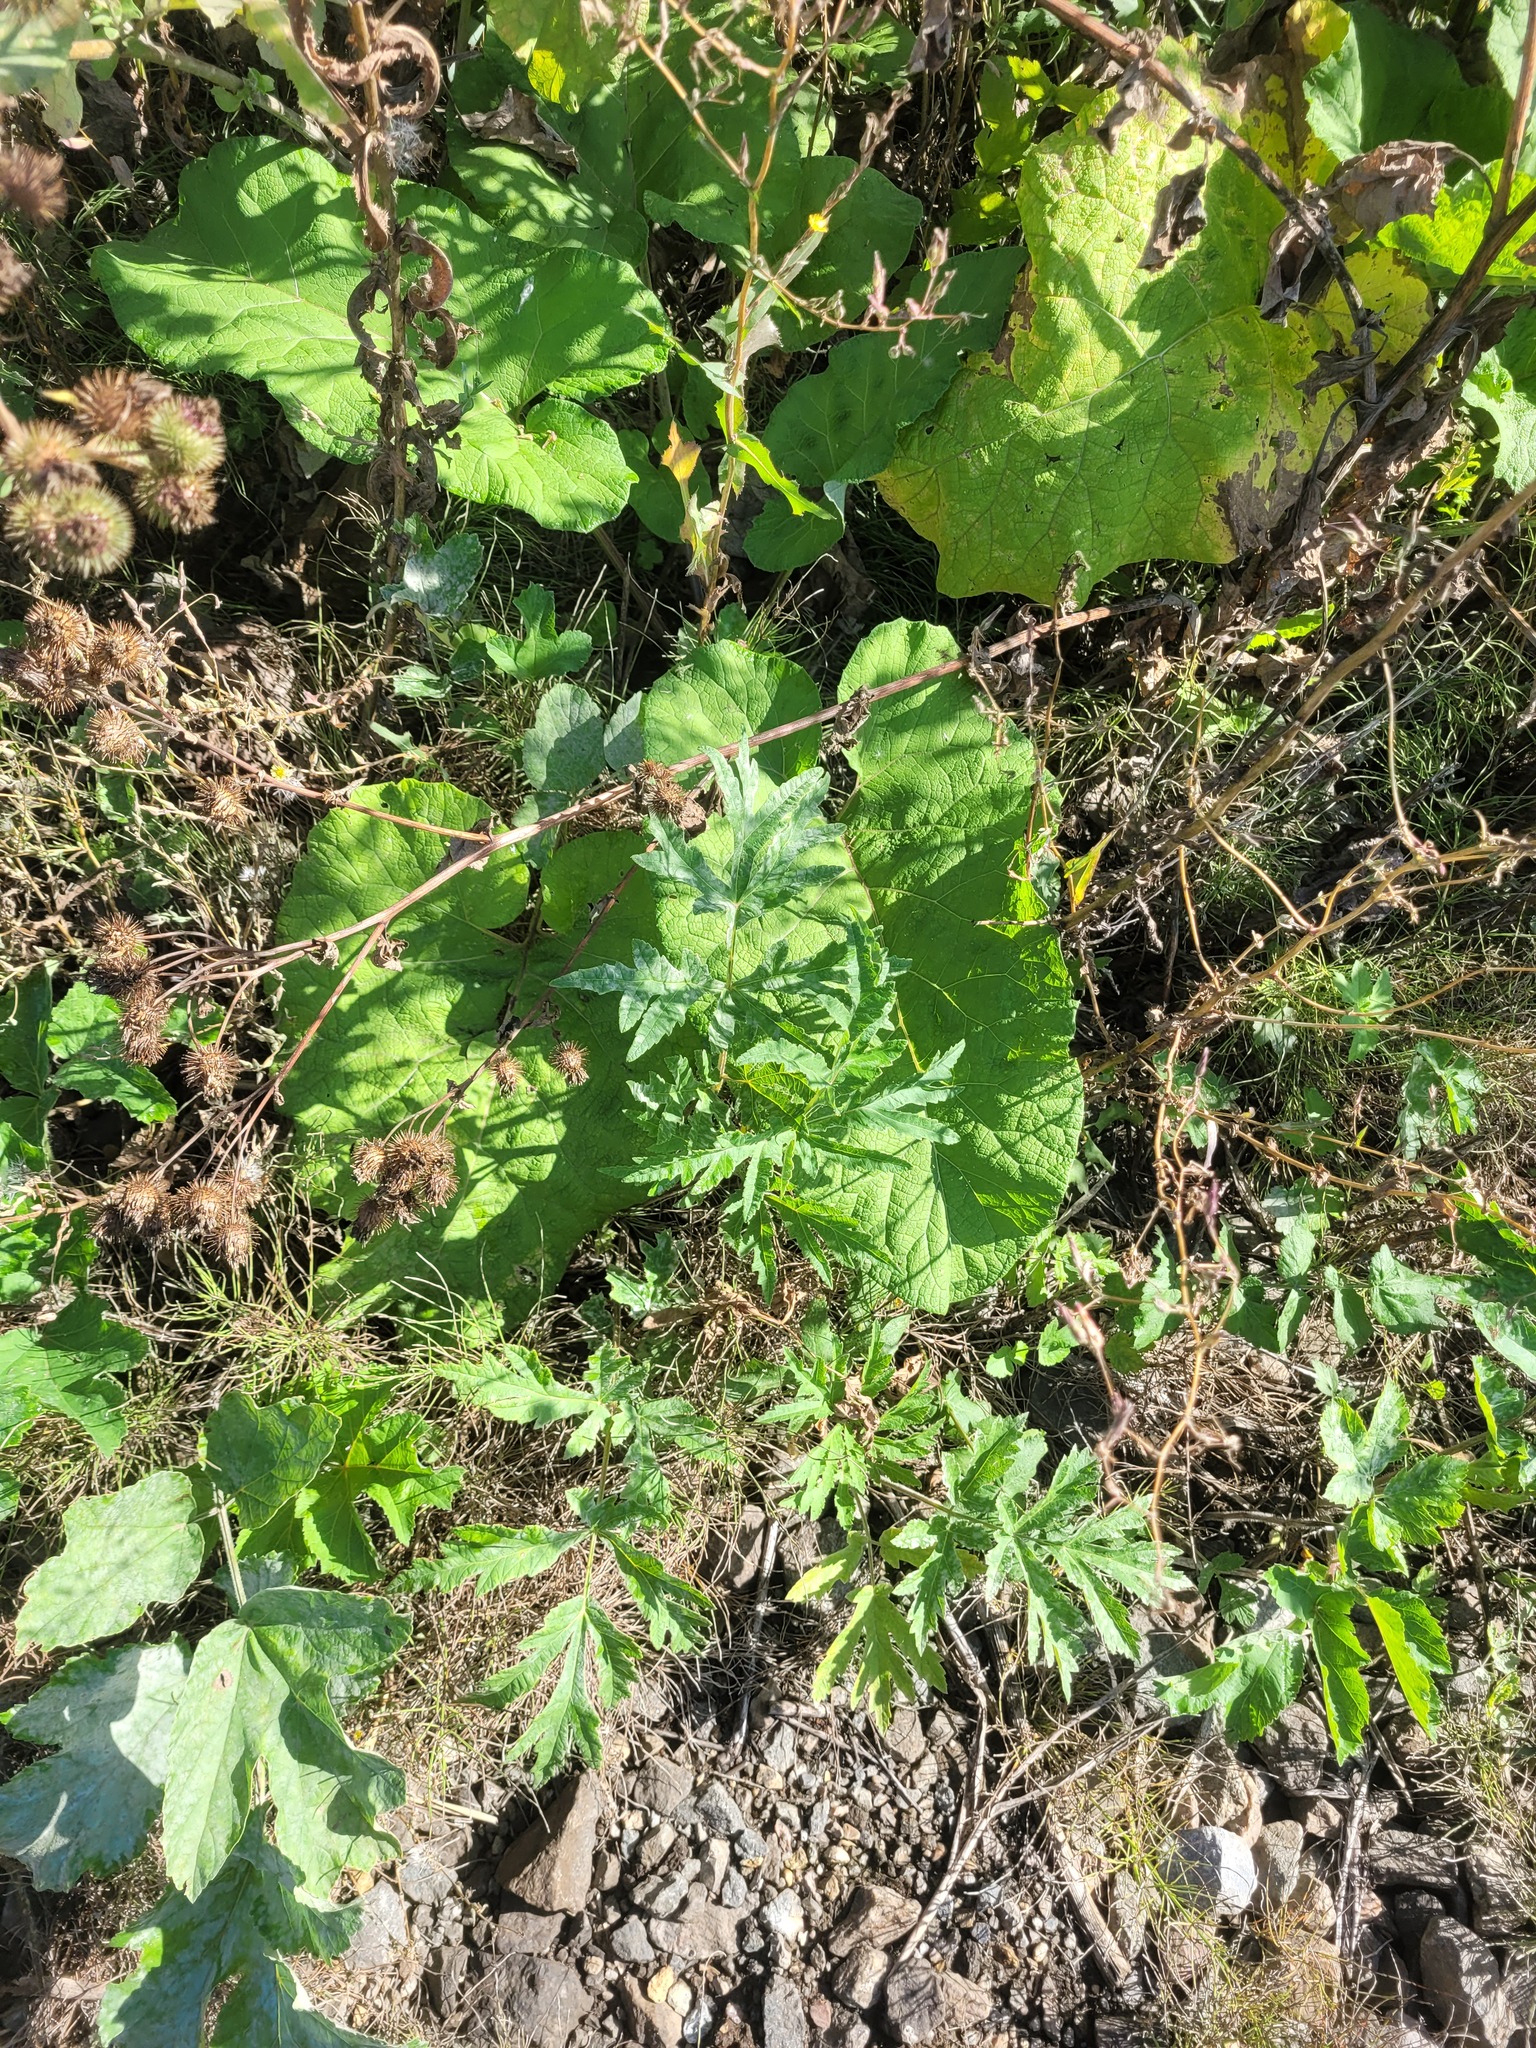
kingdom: Plantae
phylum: Tracheophyta
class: Magnoliopsida
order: Apiales
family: Apiaceae
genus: Heracleum
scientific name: Heracleum sphondylium
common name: Hogweed
